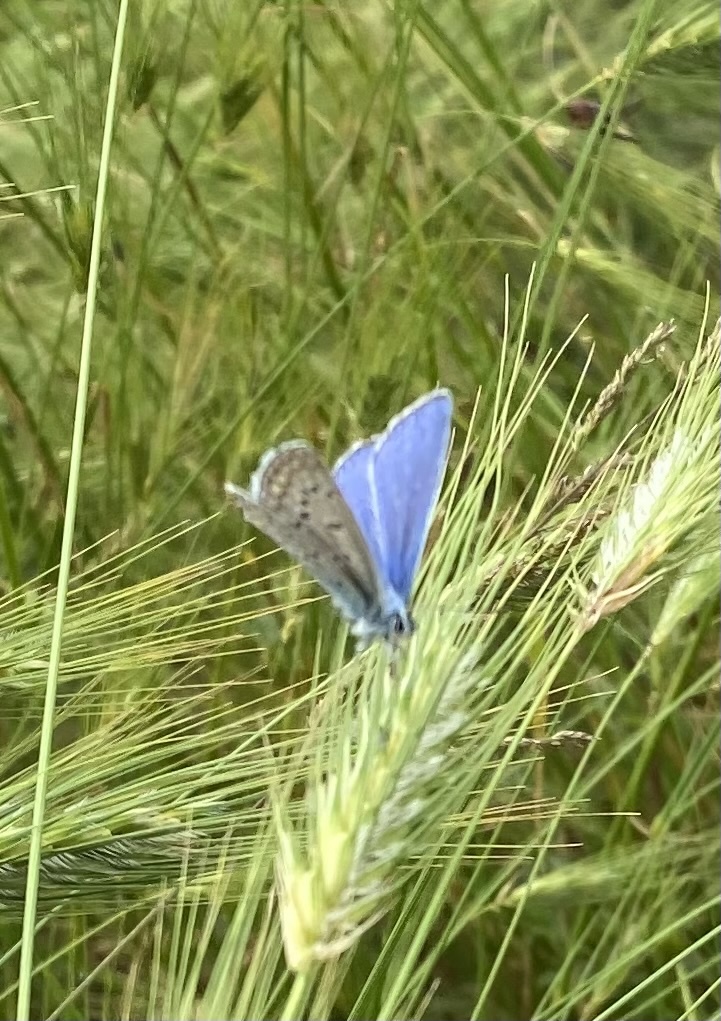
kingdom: Animalia
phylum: Arthropoda
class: Insecta
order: Lepidoptera
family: Lycaenidae
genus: Polyommatus
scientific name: Polyommatus icarus
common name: Common blue
